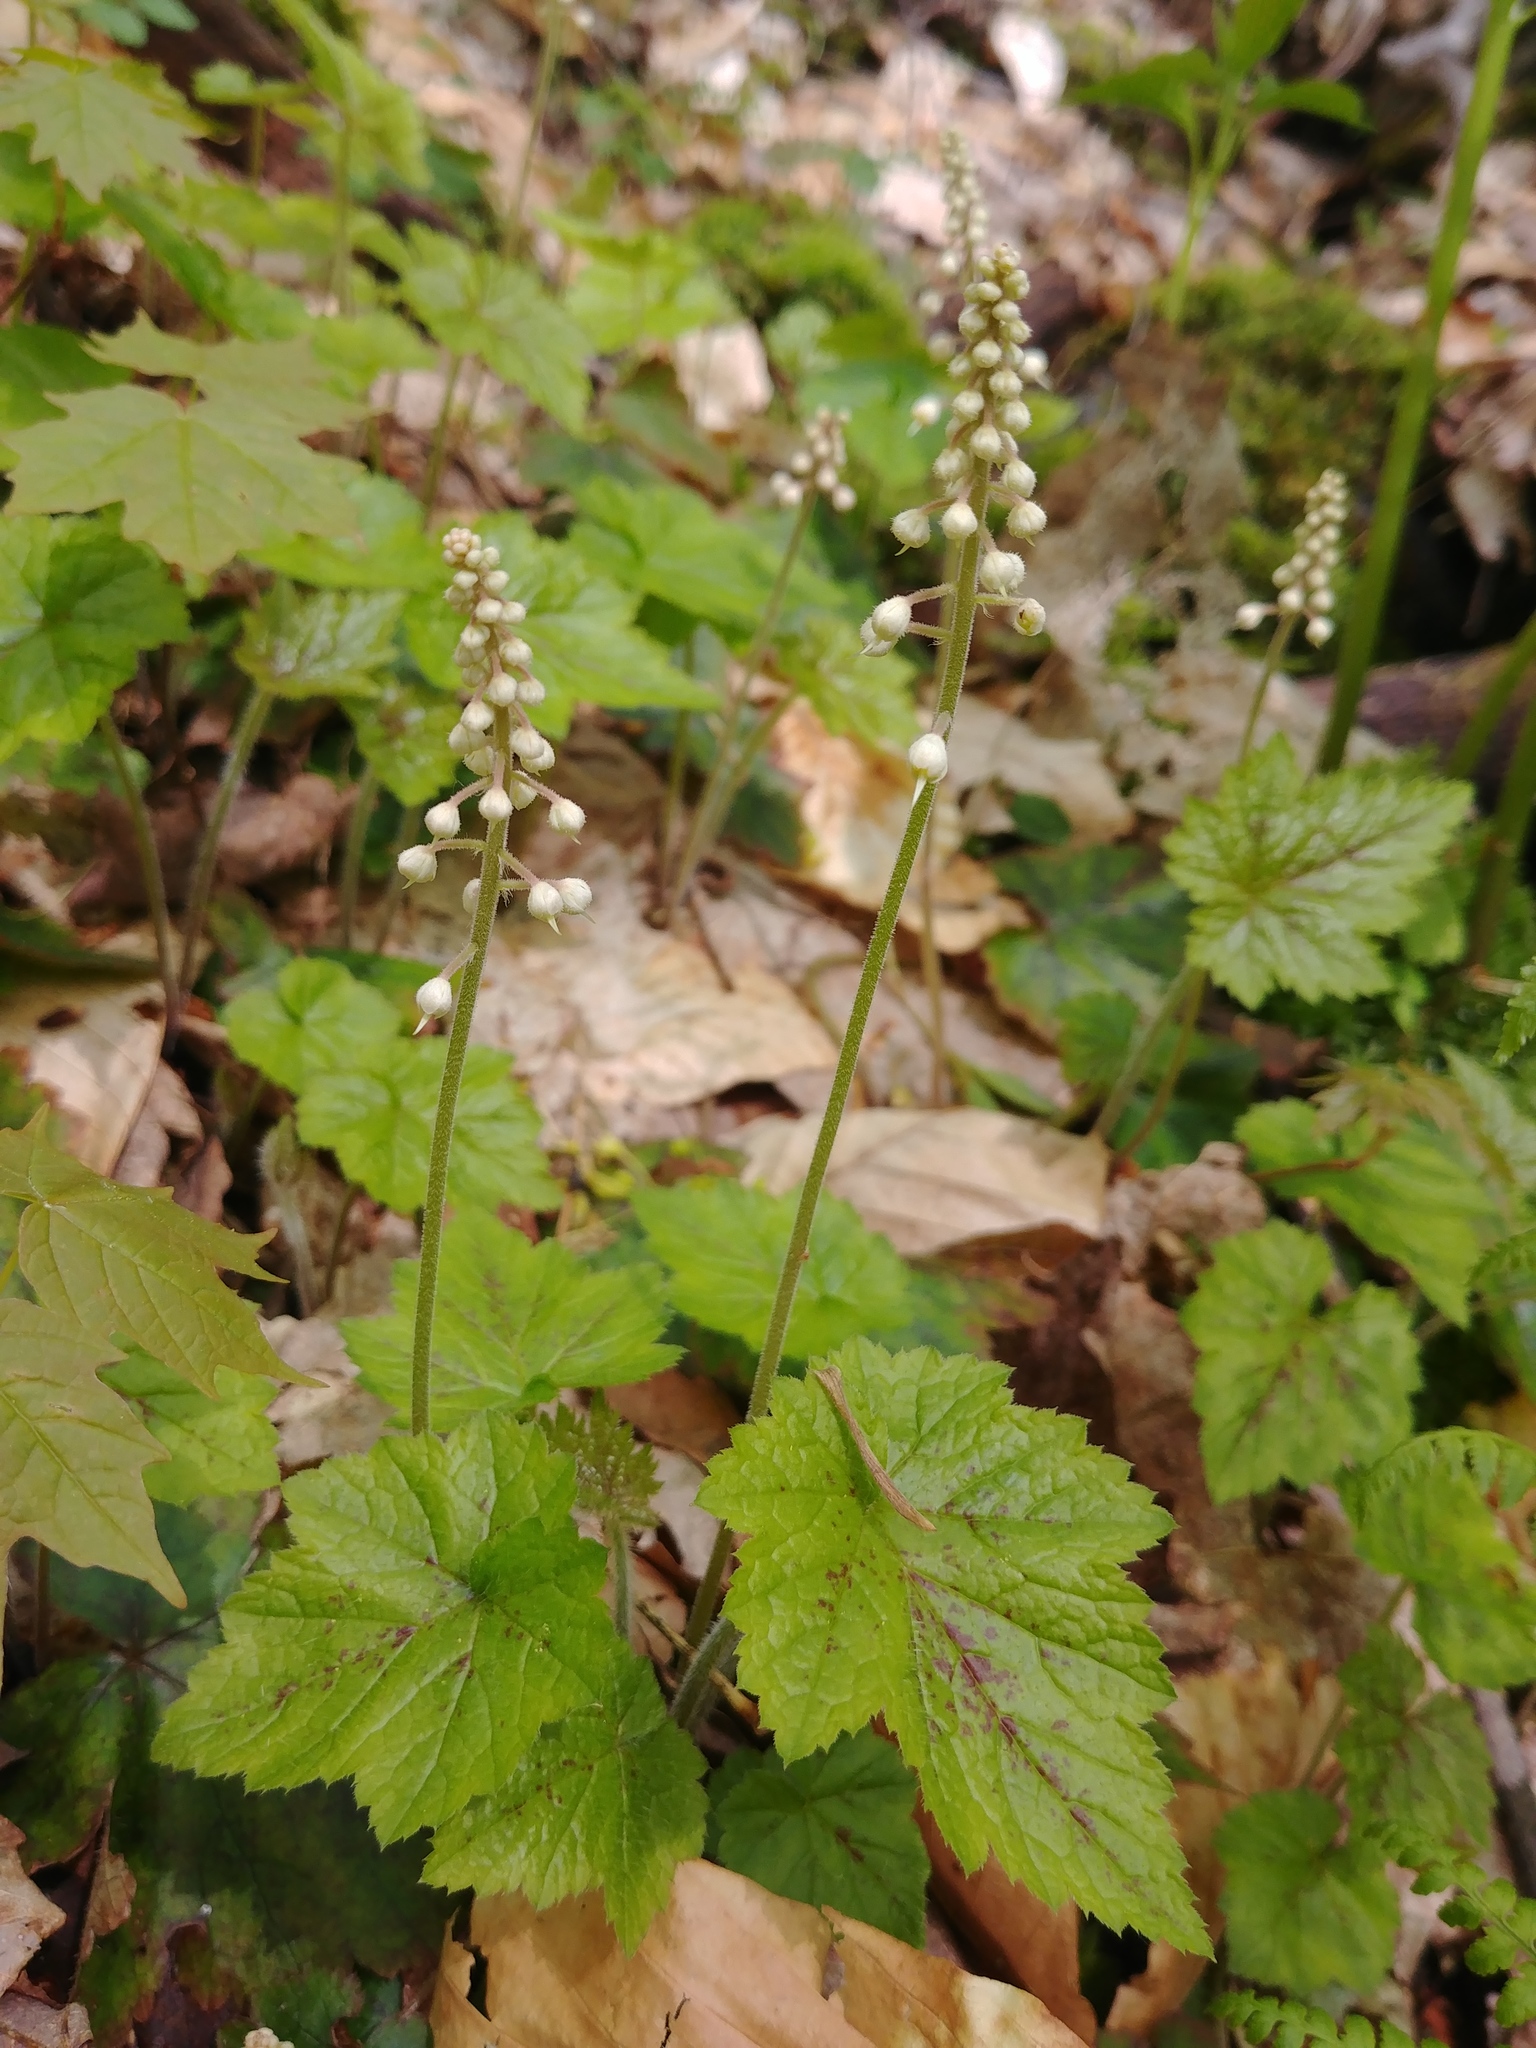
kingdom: Plantae
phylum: Tracheophyta
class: Magnoliopsida
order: Saxifragales
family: Saxifragaceae
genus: Tiarella
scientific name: Tiarella stolonifera
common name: Stoloniferous foamflower
